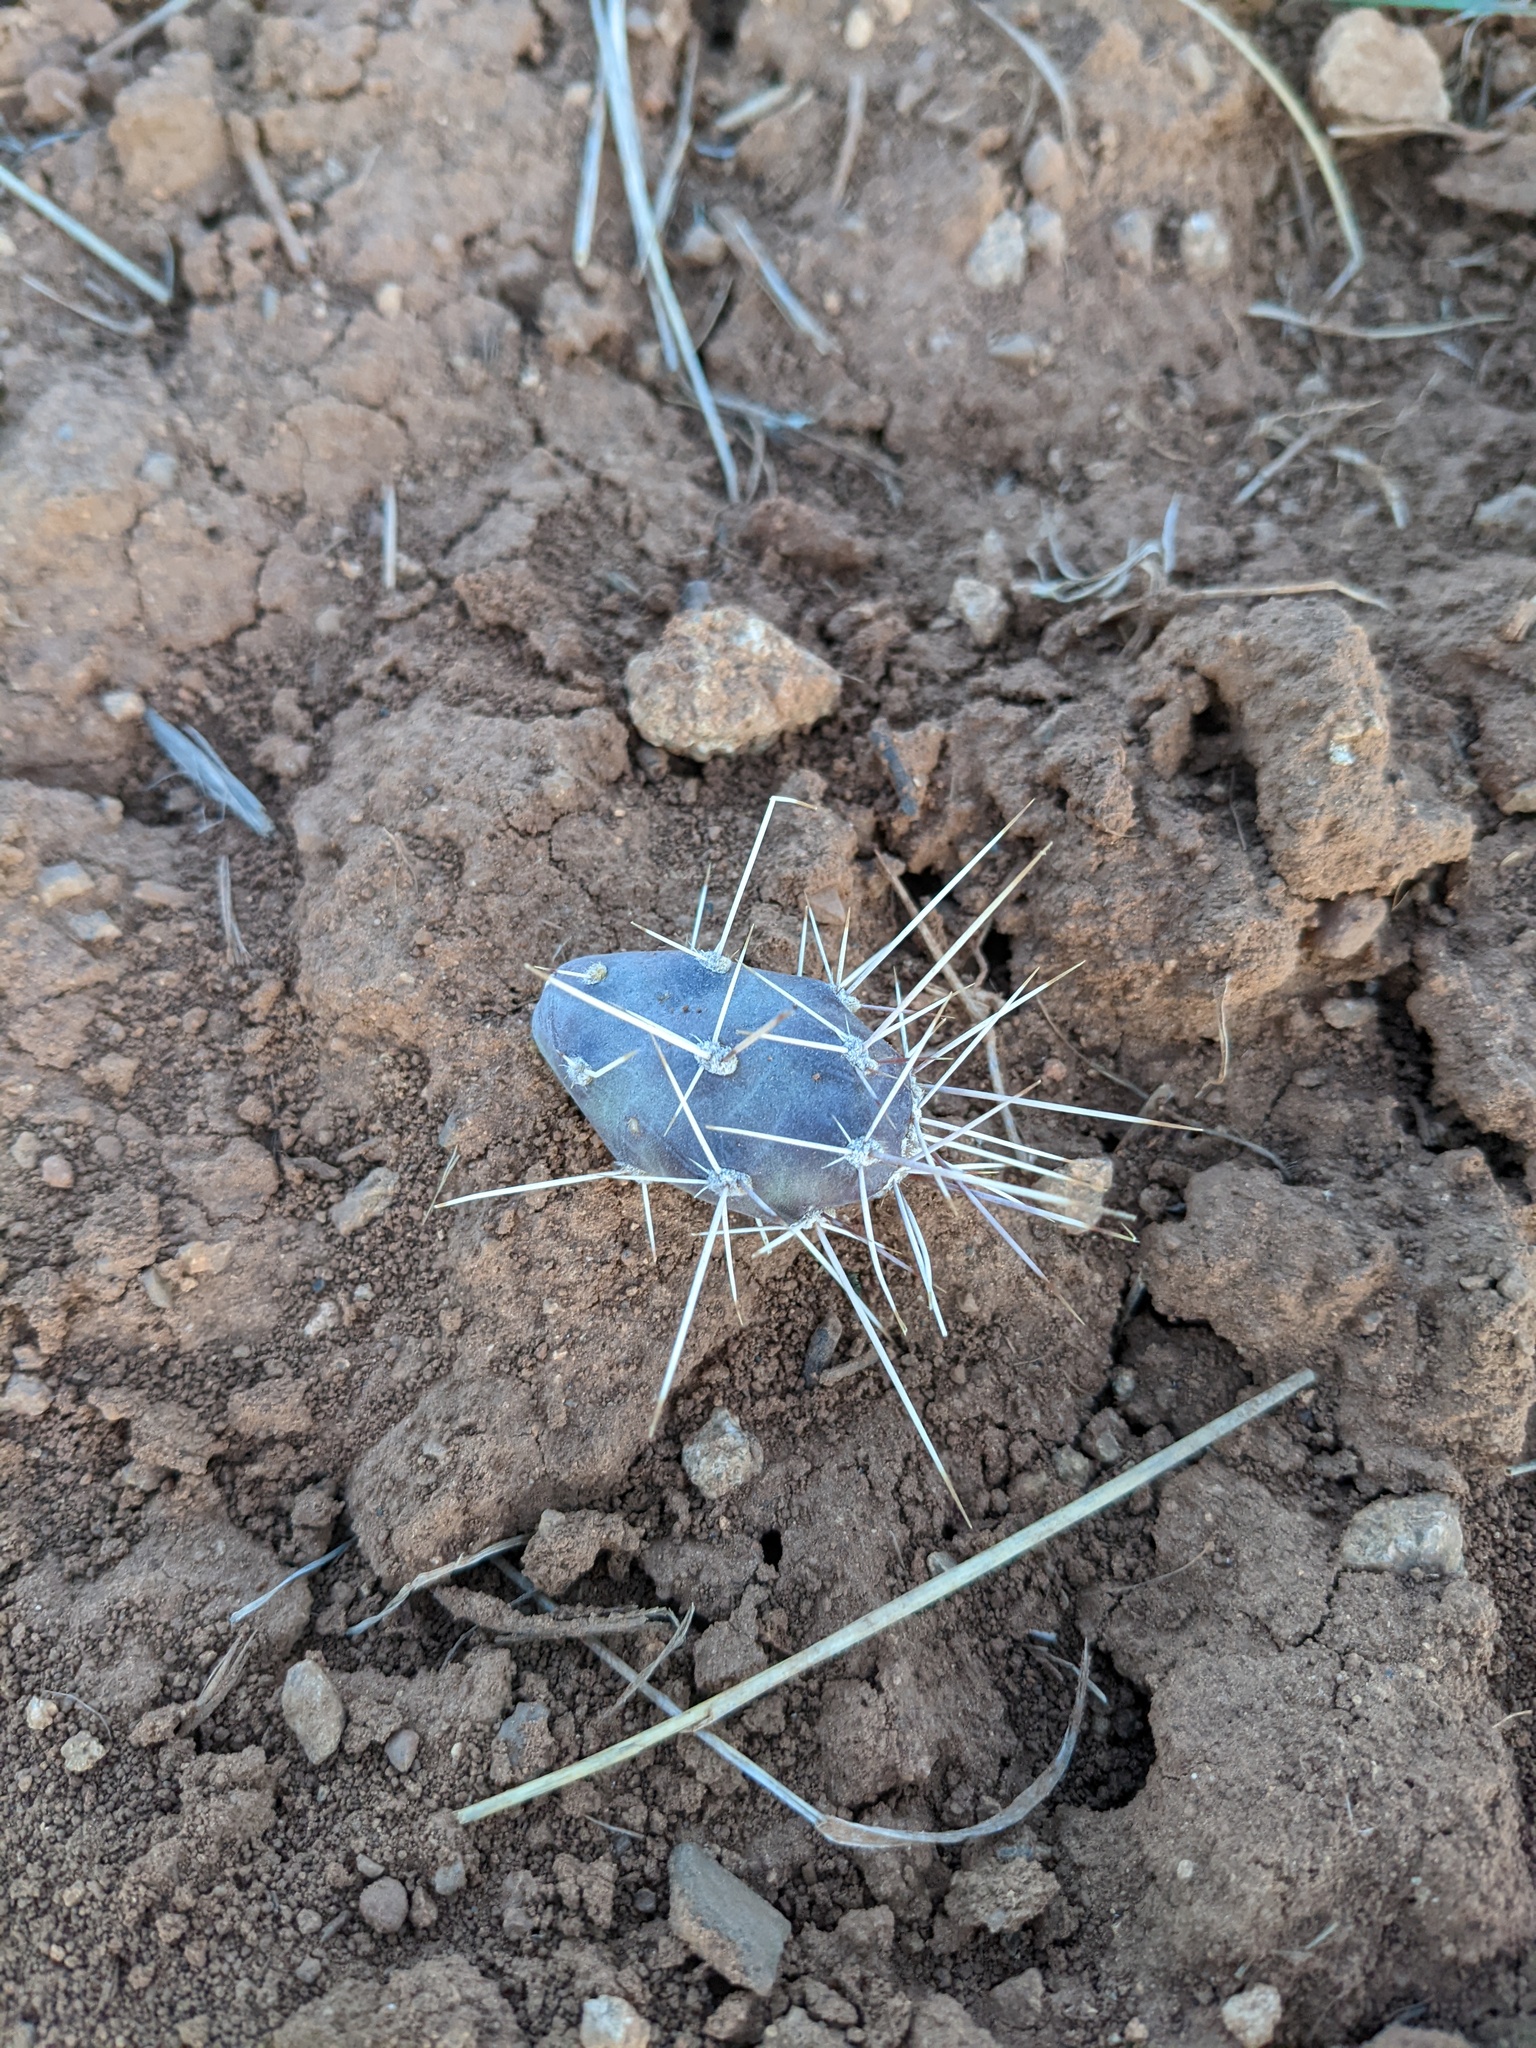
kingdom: Plantae
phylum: Tracheophyta
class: Magnoliopsida
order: Caryophyllales
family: Cactaceae
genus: Opuntia
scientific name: Opuntia fragilis
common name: Brittle cactus
